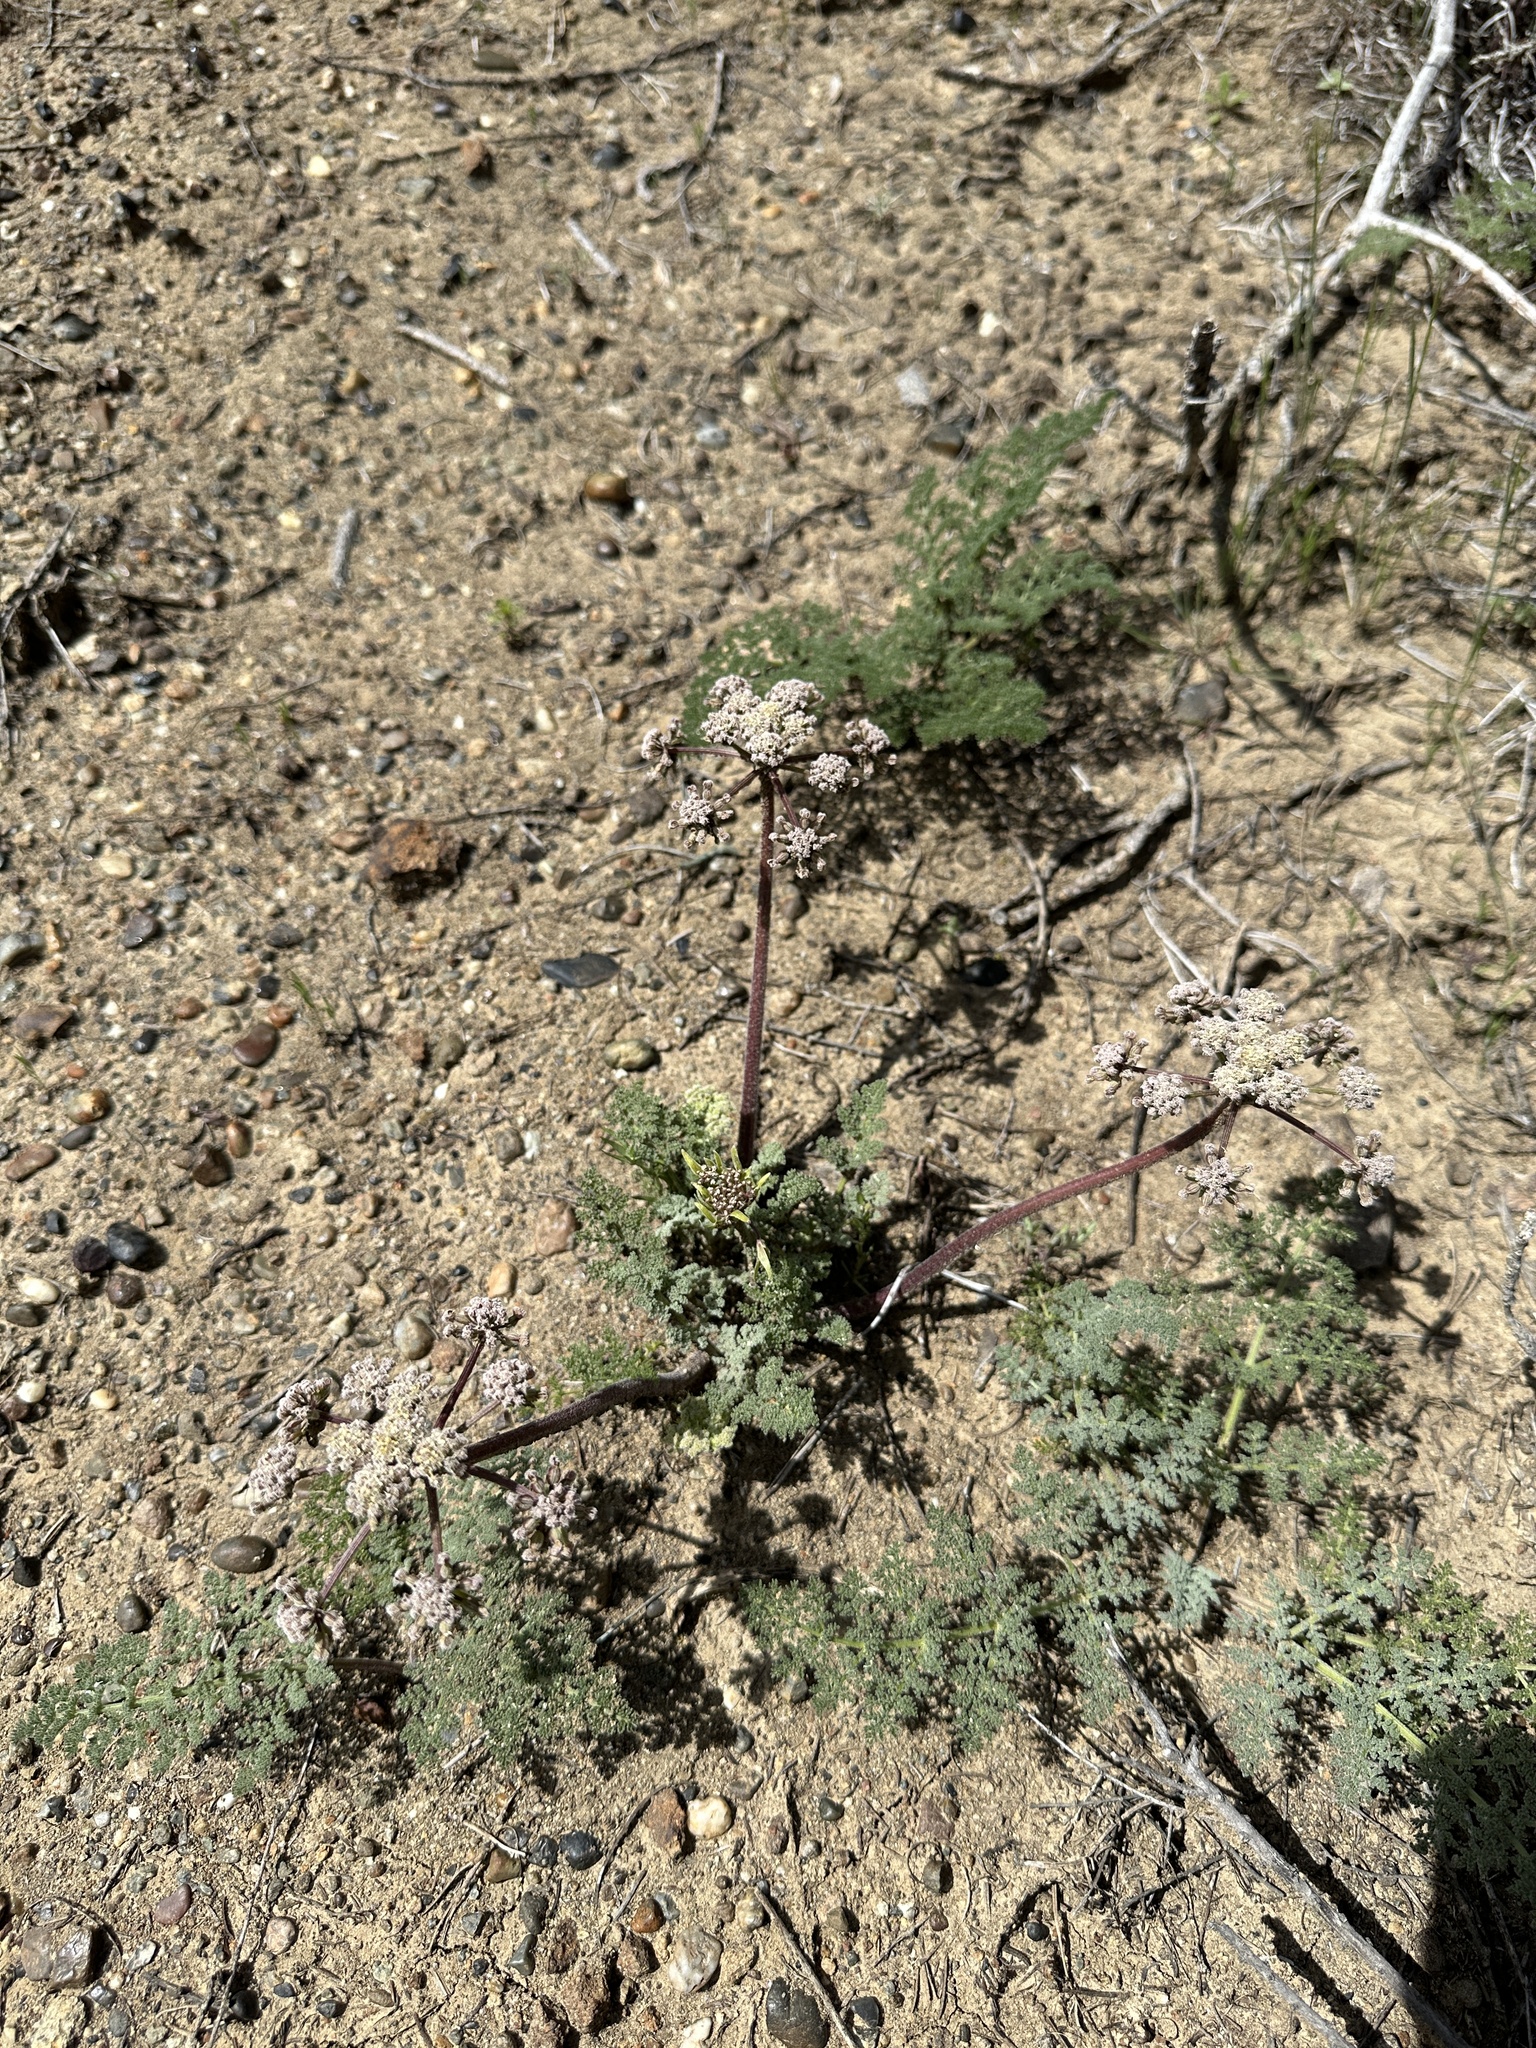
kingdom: Plantae
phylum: Tracheophyta
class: Magnoliopsida
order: Apiales
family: Apiaceae
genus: Lomatium
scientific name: Lomatium dasycarpum
